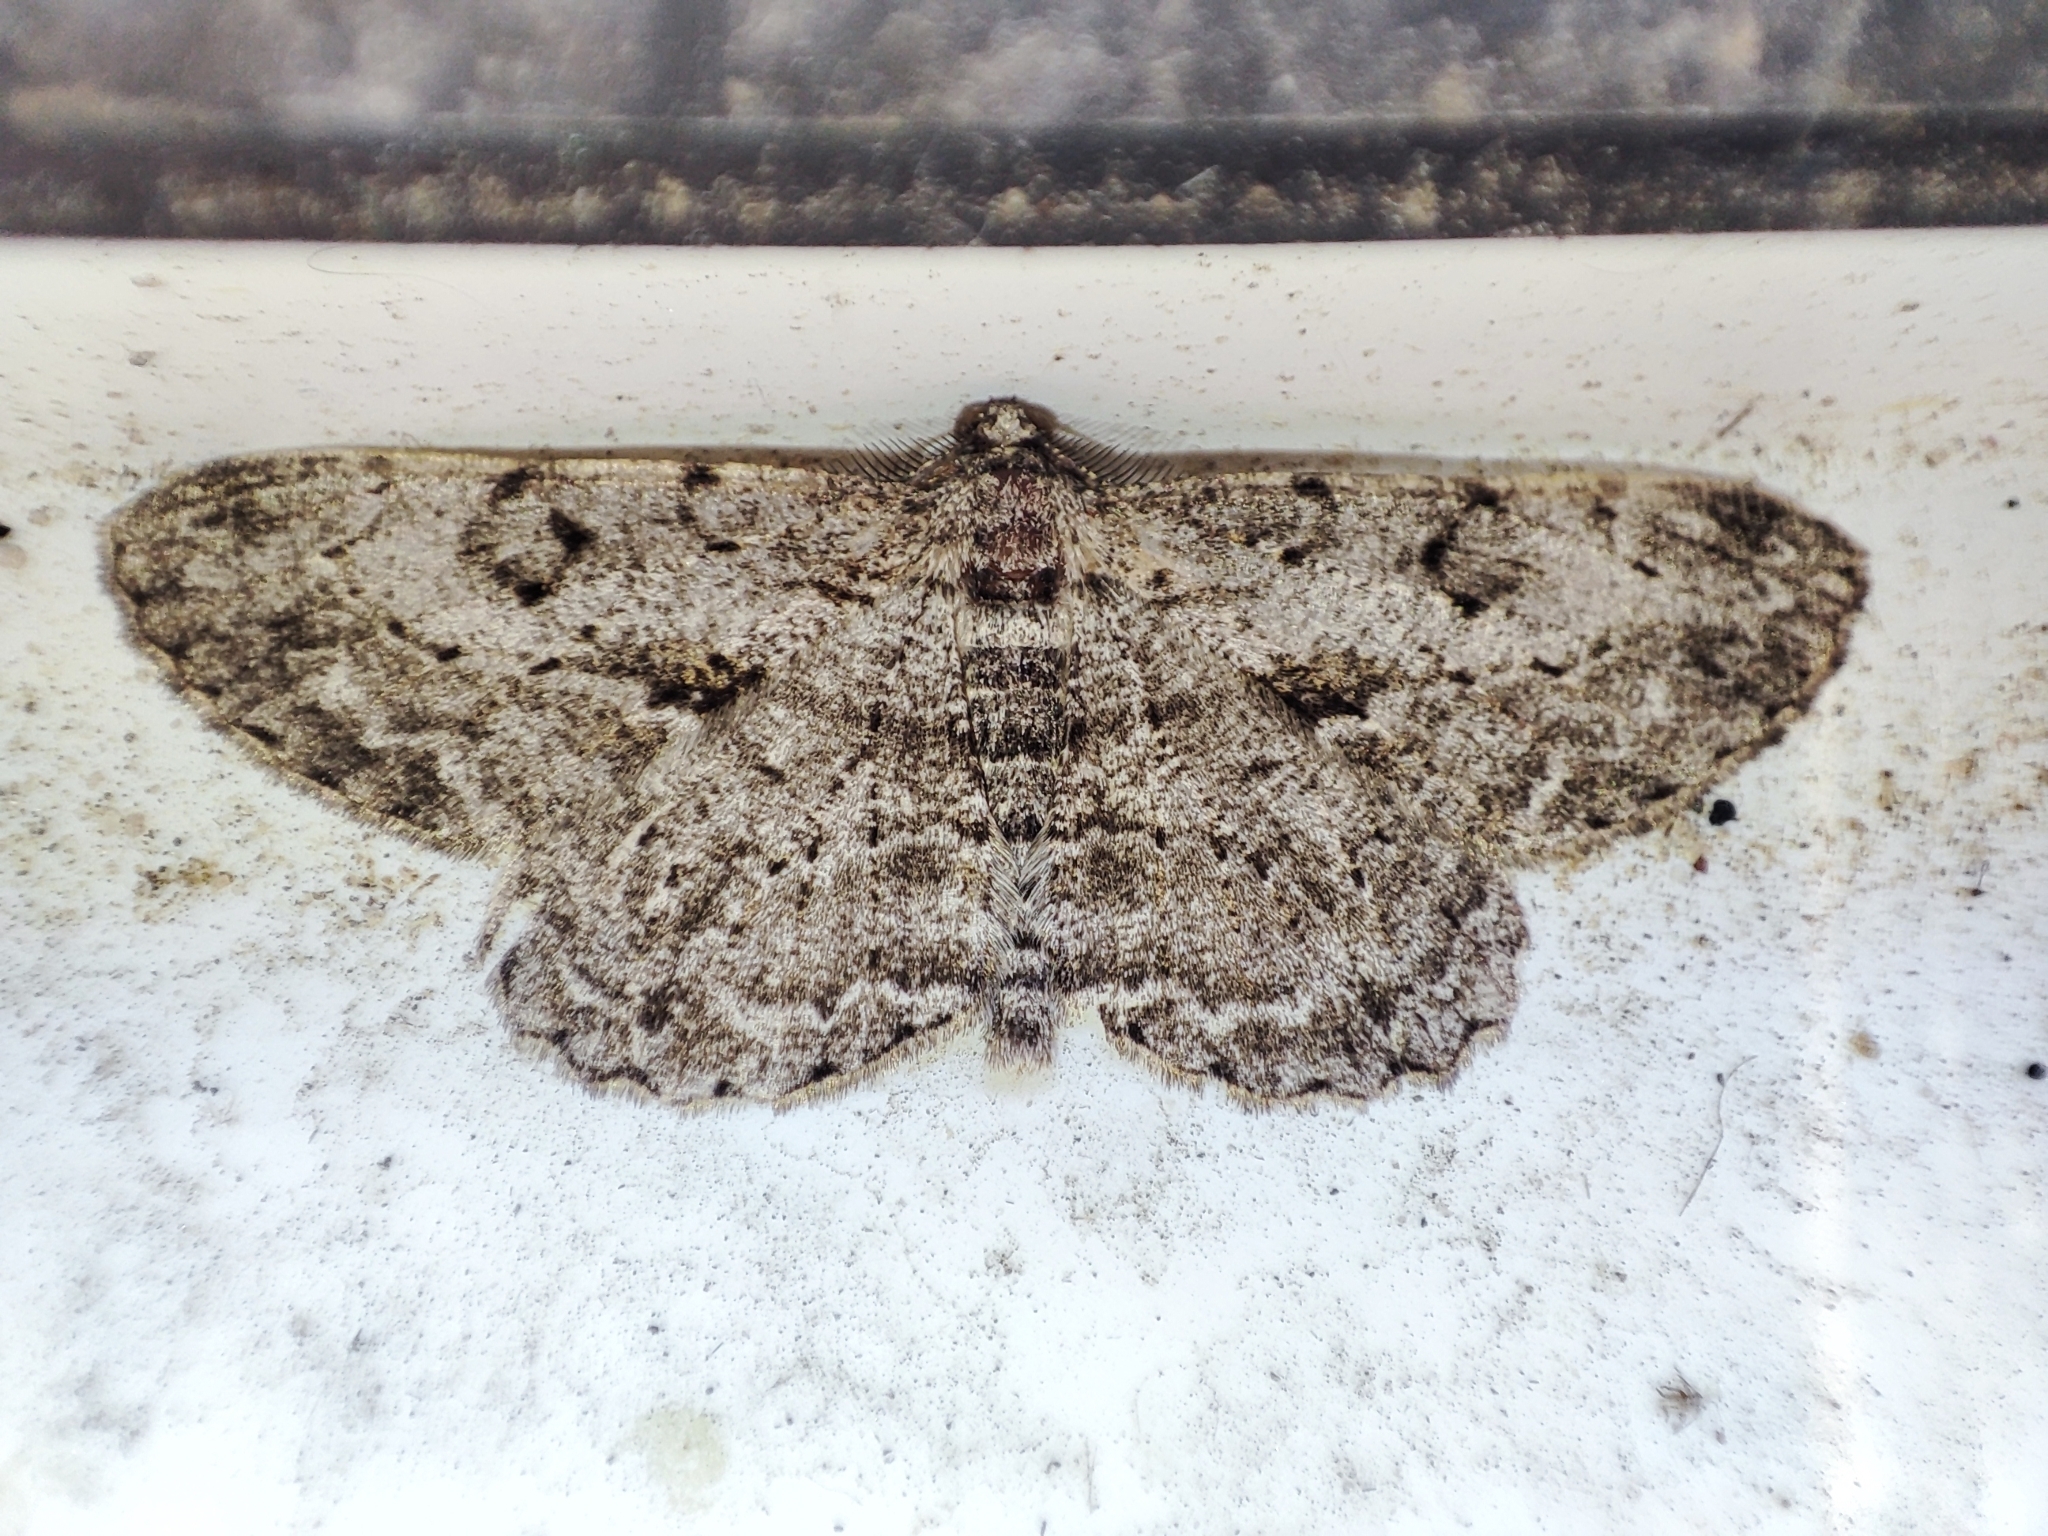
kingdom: Animalia
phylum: Arthropoda
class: Insecta
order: Lepidoptera
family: Geometridae
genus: Peribatodes
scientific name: Peribatodes rhomboidaria
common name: Willow beauty
